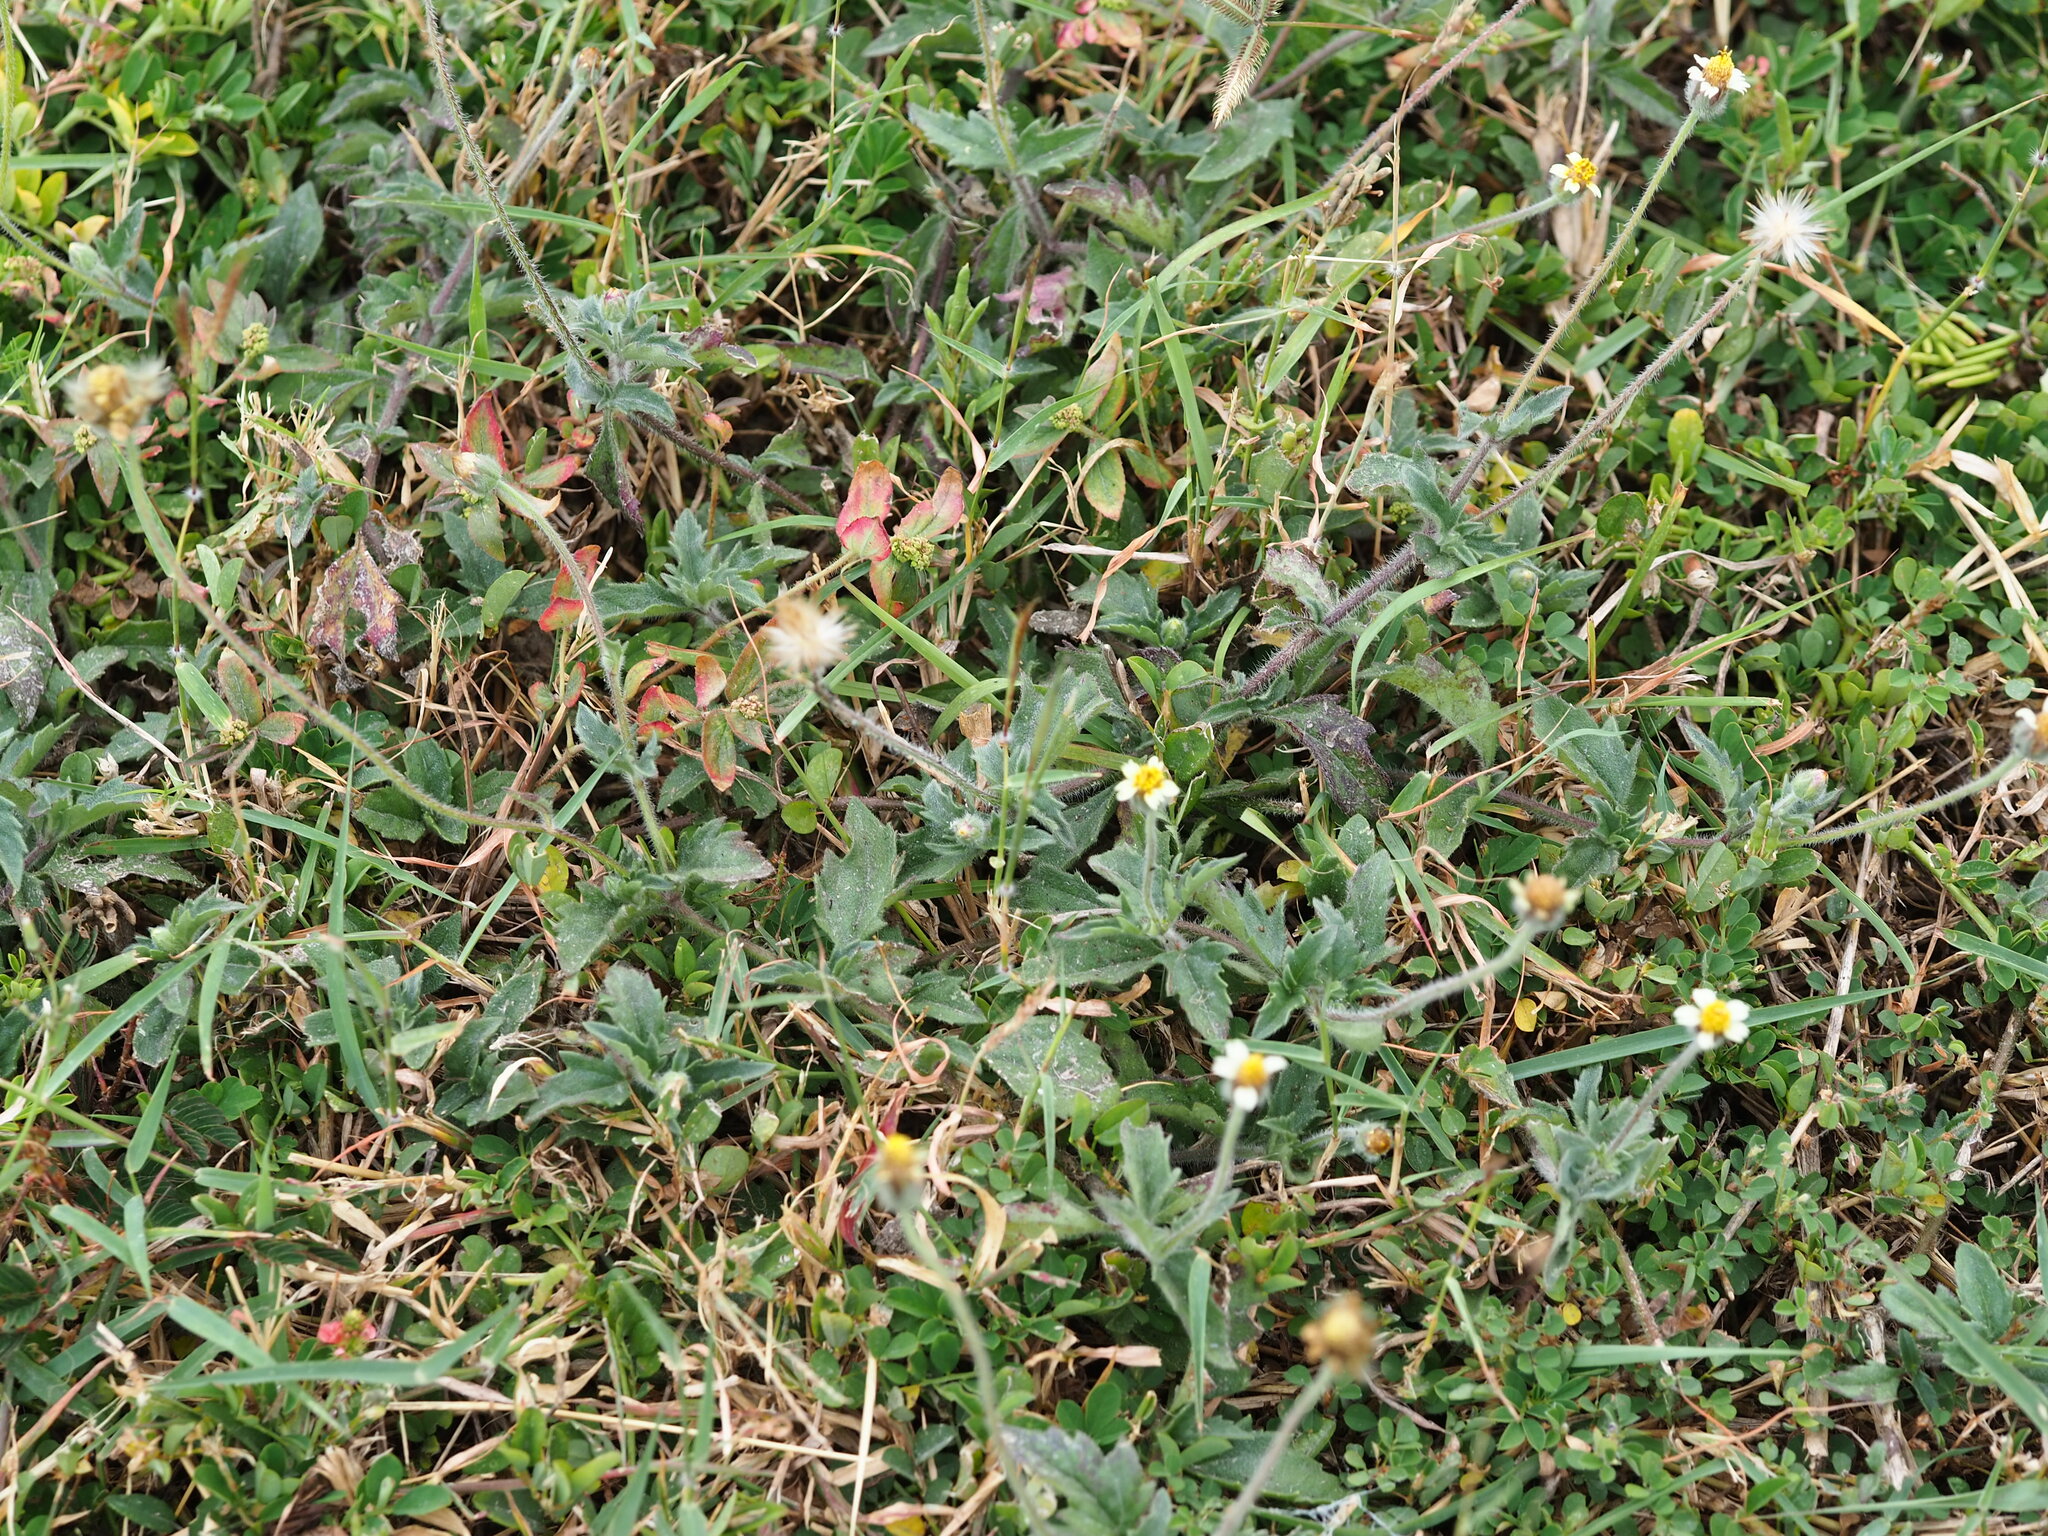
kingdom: Plantae
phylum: Tracheophyta
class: Magnoliopsida
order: Asterales
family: Asteraceae
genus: Tridax
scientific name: Tridax procumbens
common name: Coatbuttons
